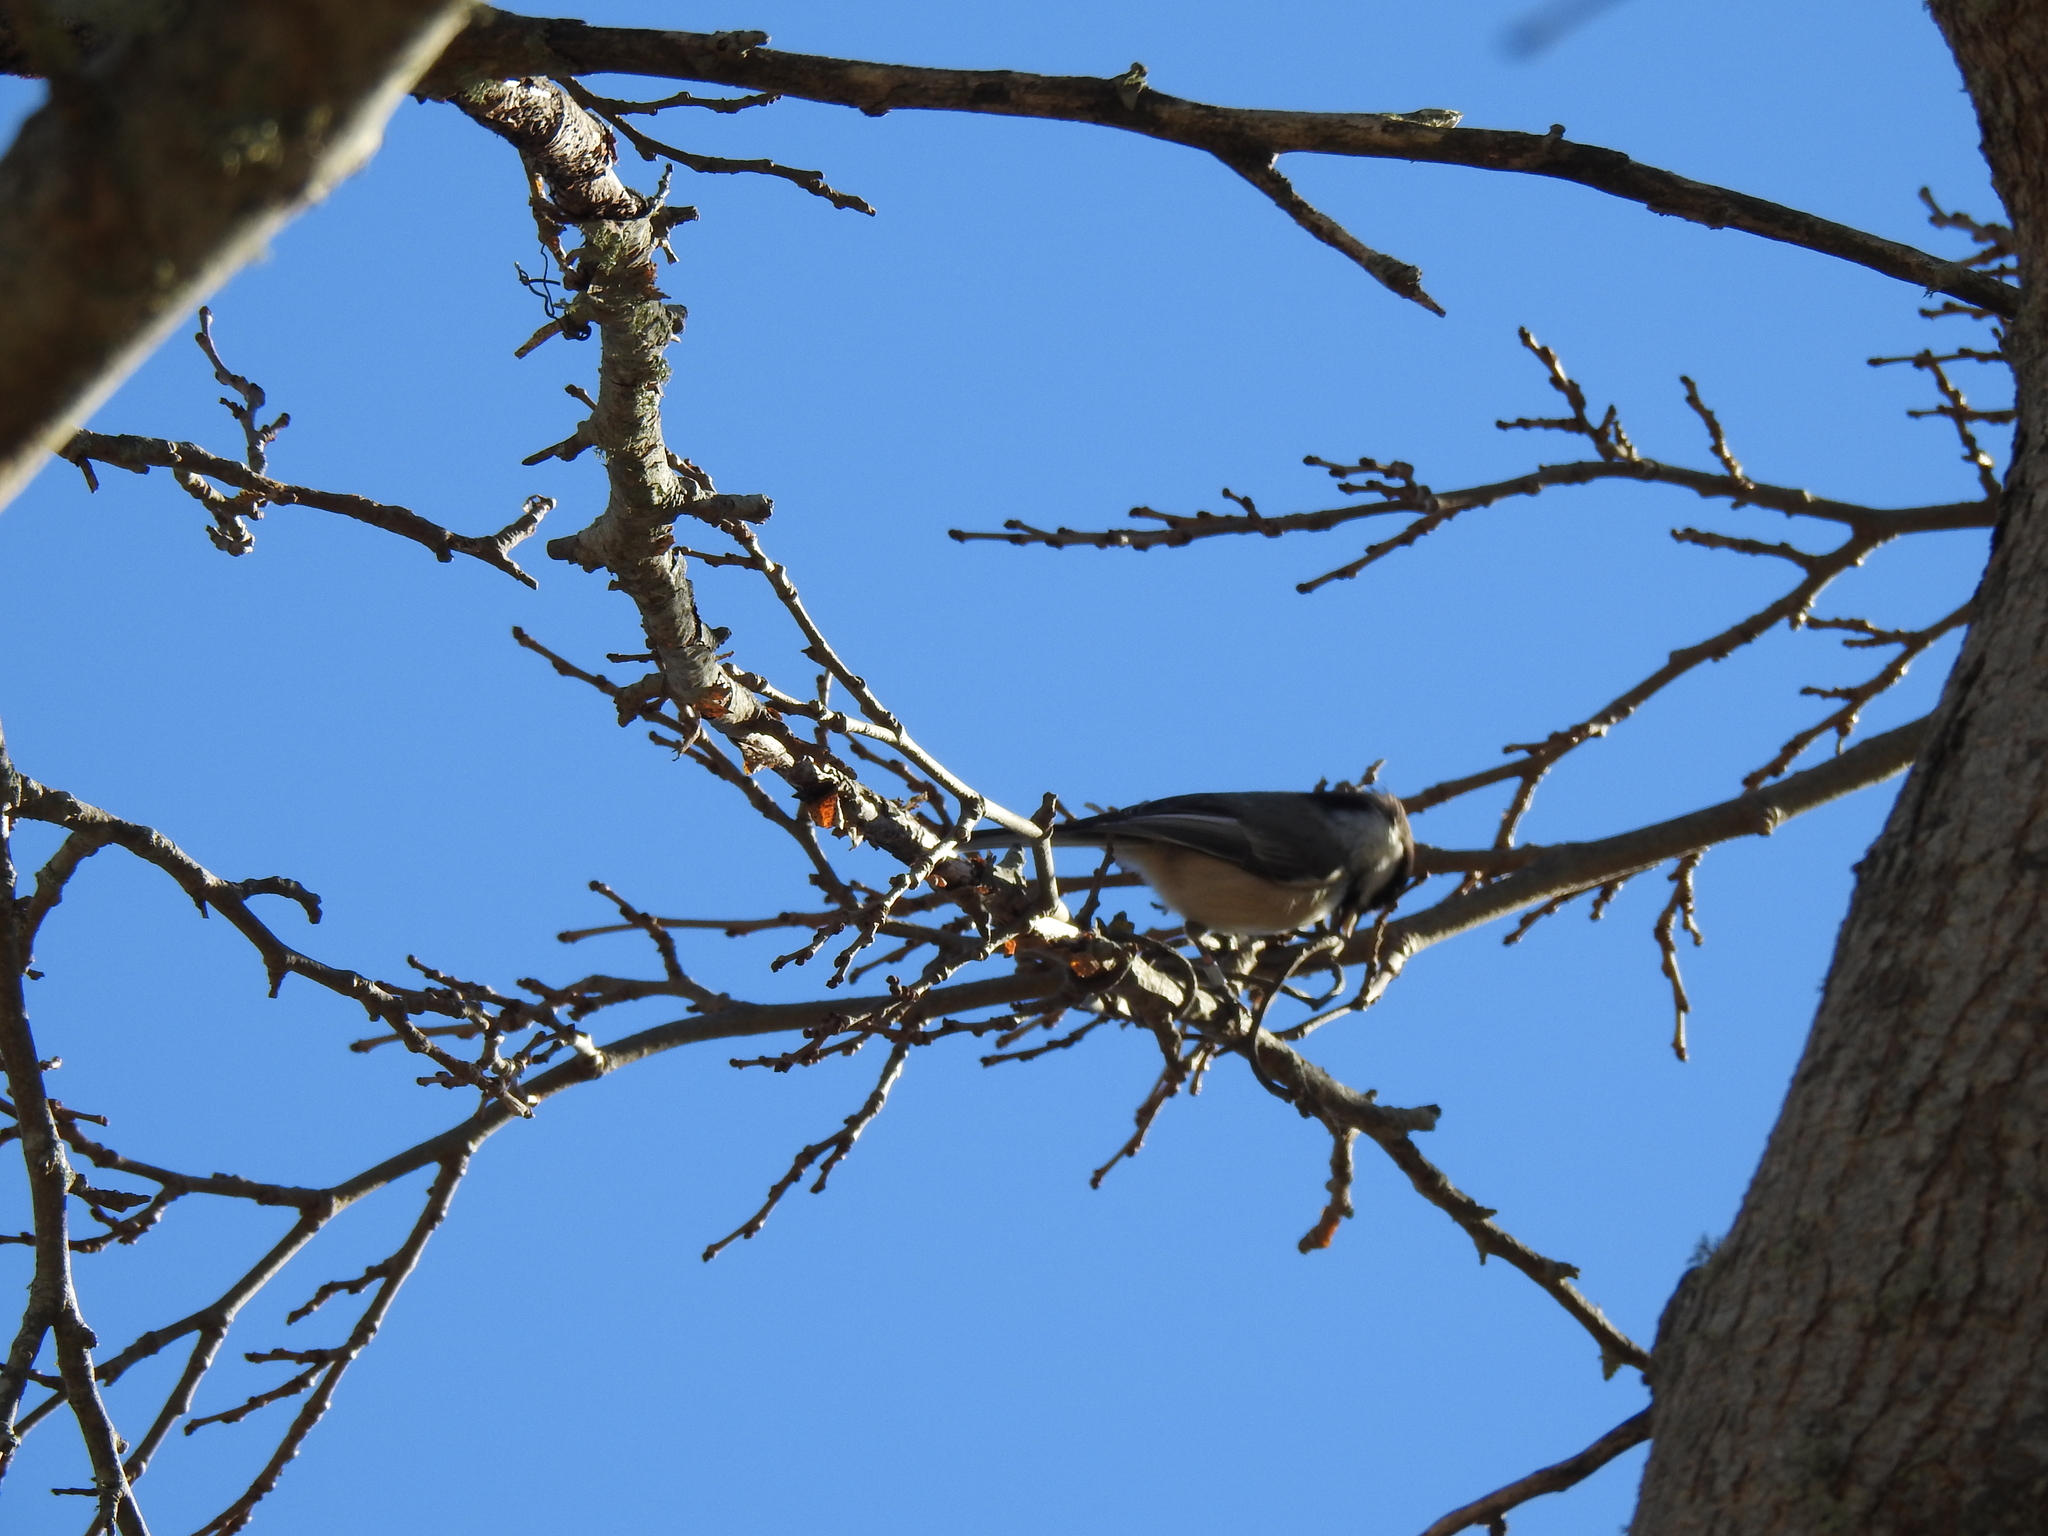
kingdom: Animalia
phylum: Chordata
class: Aves
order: Passeriformes
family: Paridae
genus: Poecile
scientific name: Poecile atricapillus
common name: Black-capped chickadee
